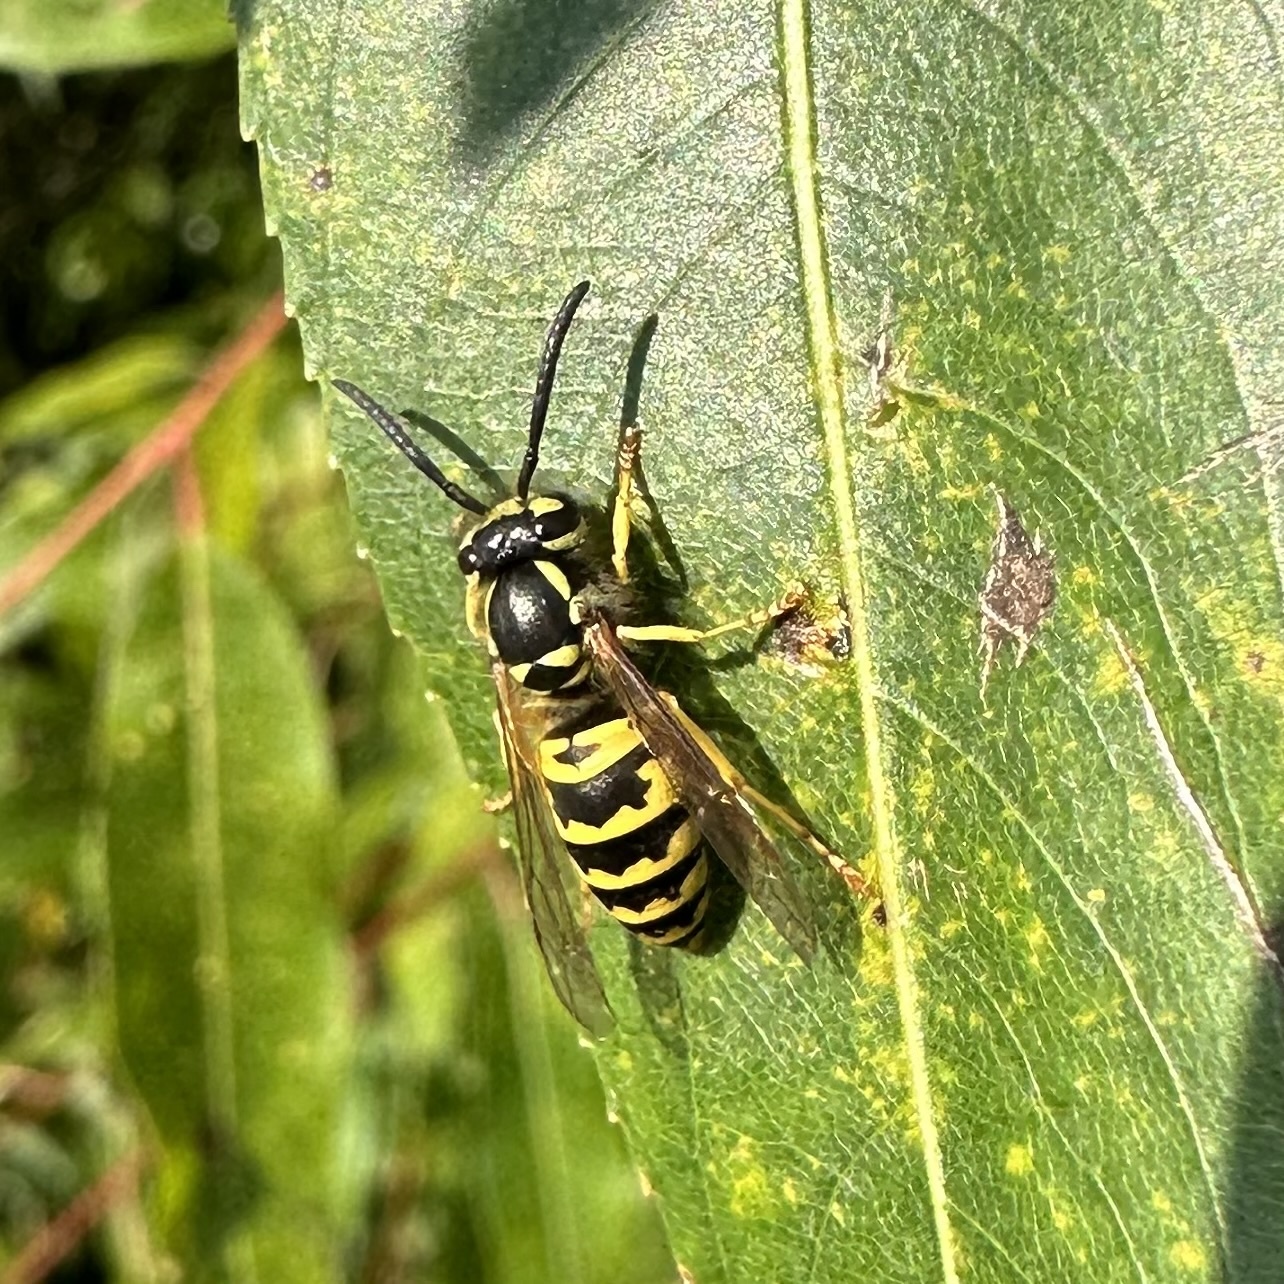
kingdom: Animalia
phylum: Arthropoda
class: Insecta
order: Hymenoptera
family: Vespidae
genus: Vespula
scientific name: Vespula maculifrons
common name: Eastern yellowjacket
